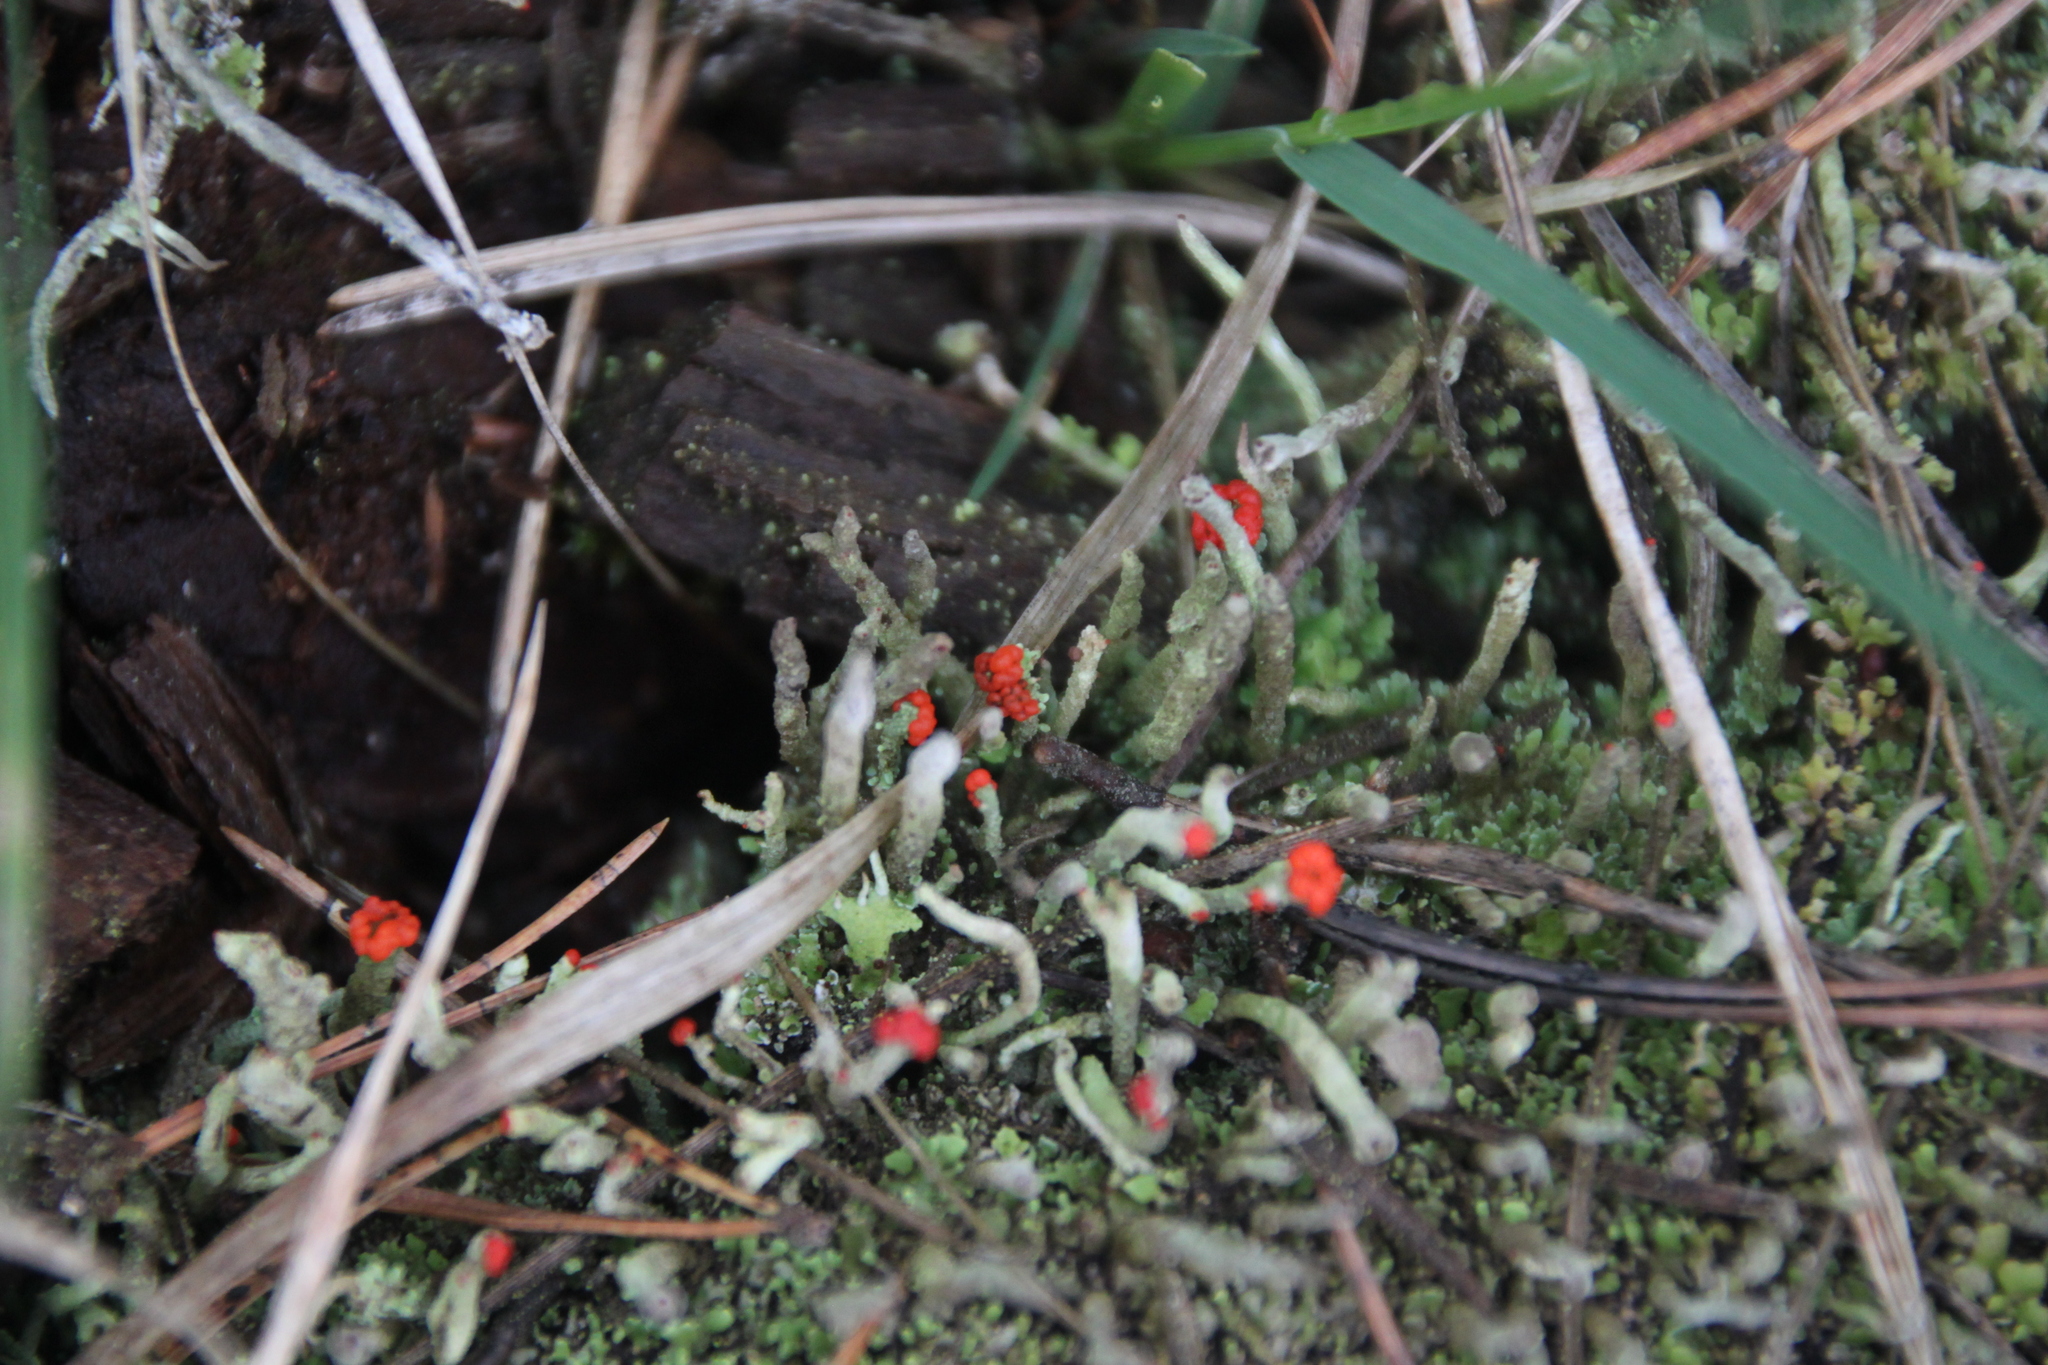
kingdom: Fungi
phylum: Ascomycota
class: Lecanoromycetes
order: Lecanorales
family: Cladoniaceae
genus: Cladonia
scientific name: Cladonia macilenta
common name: Lipstick powderhorn
